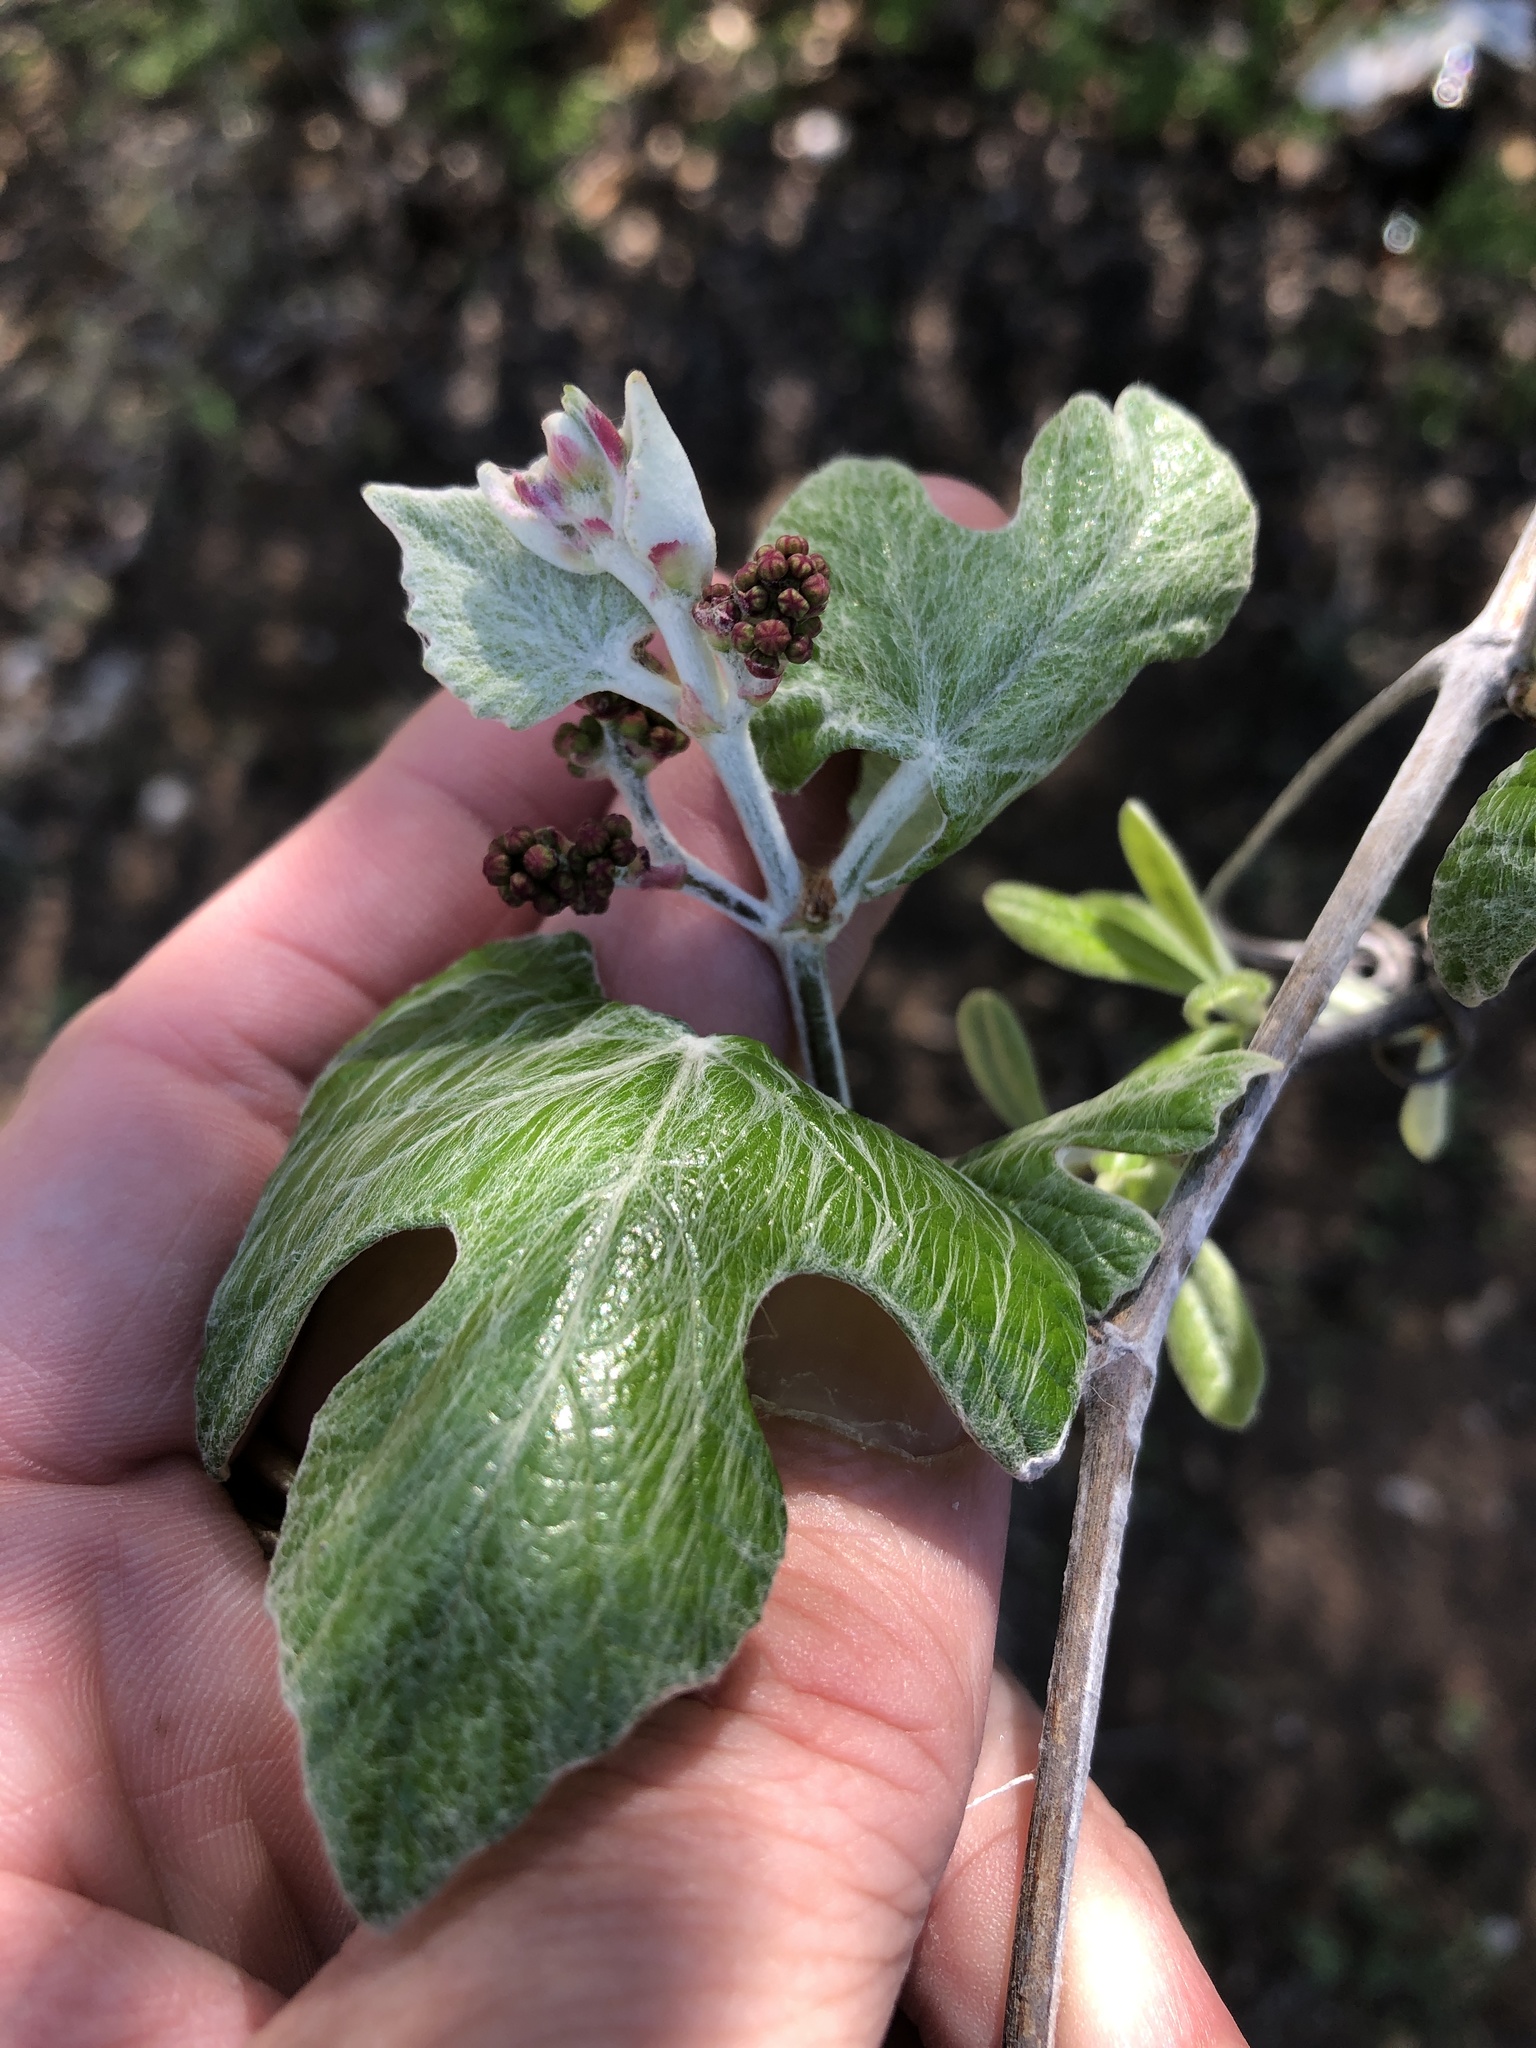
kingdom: Plantae
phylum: Tracheophyta
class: Magnoliopsida
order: Vitales
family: Vitaceae
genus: Vitis
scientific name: Vitis mustangensis
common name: Mustang grape
